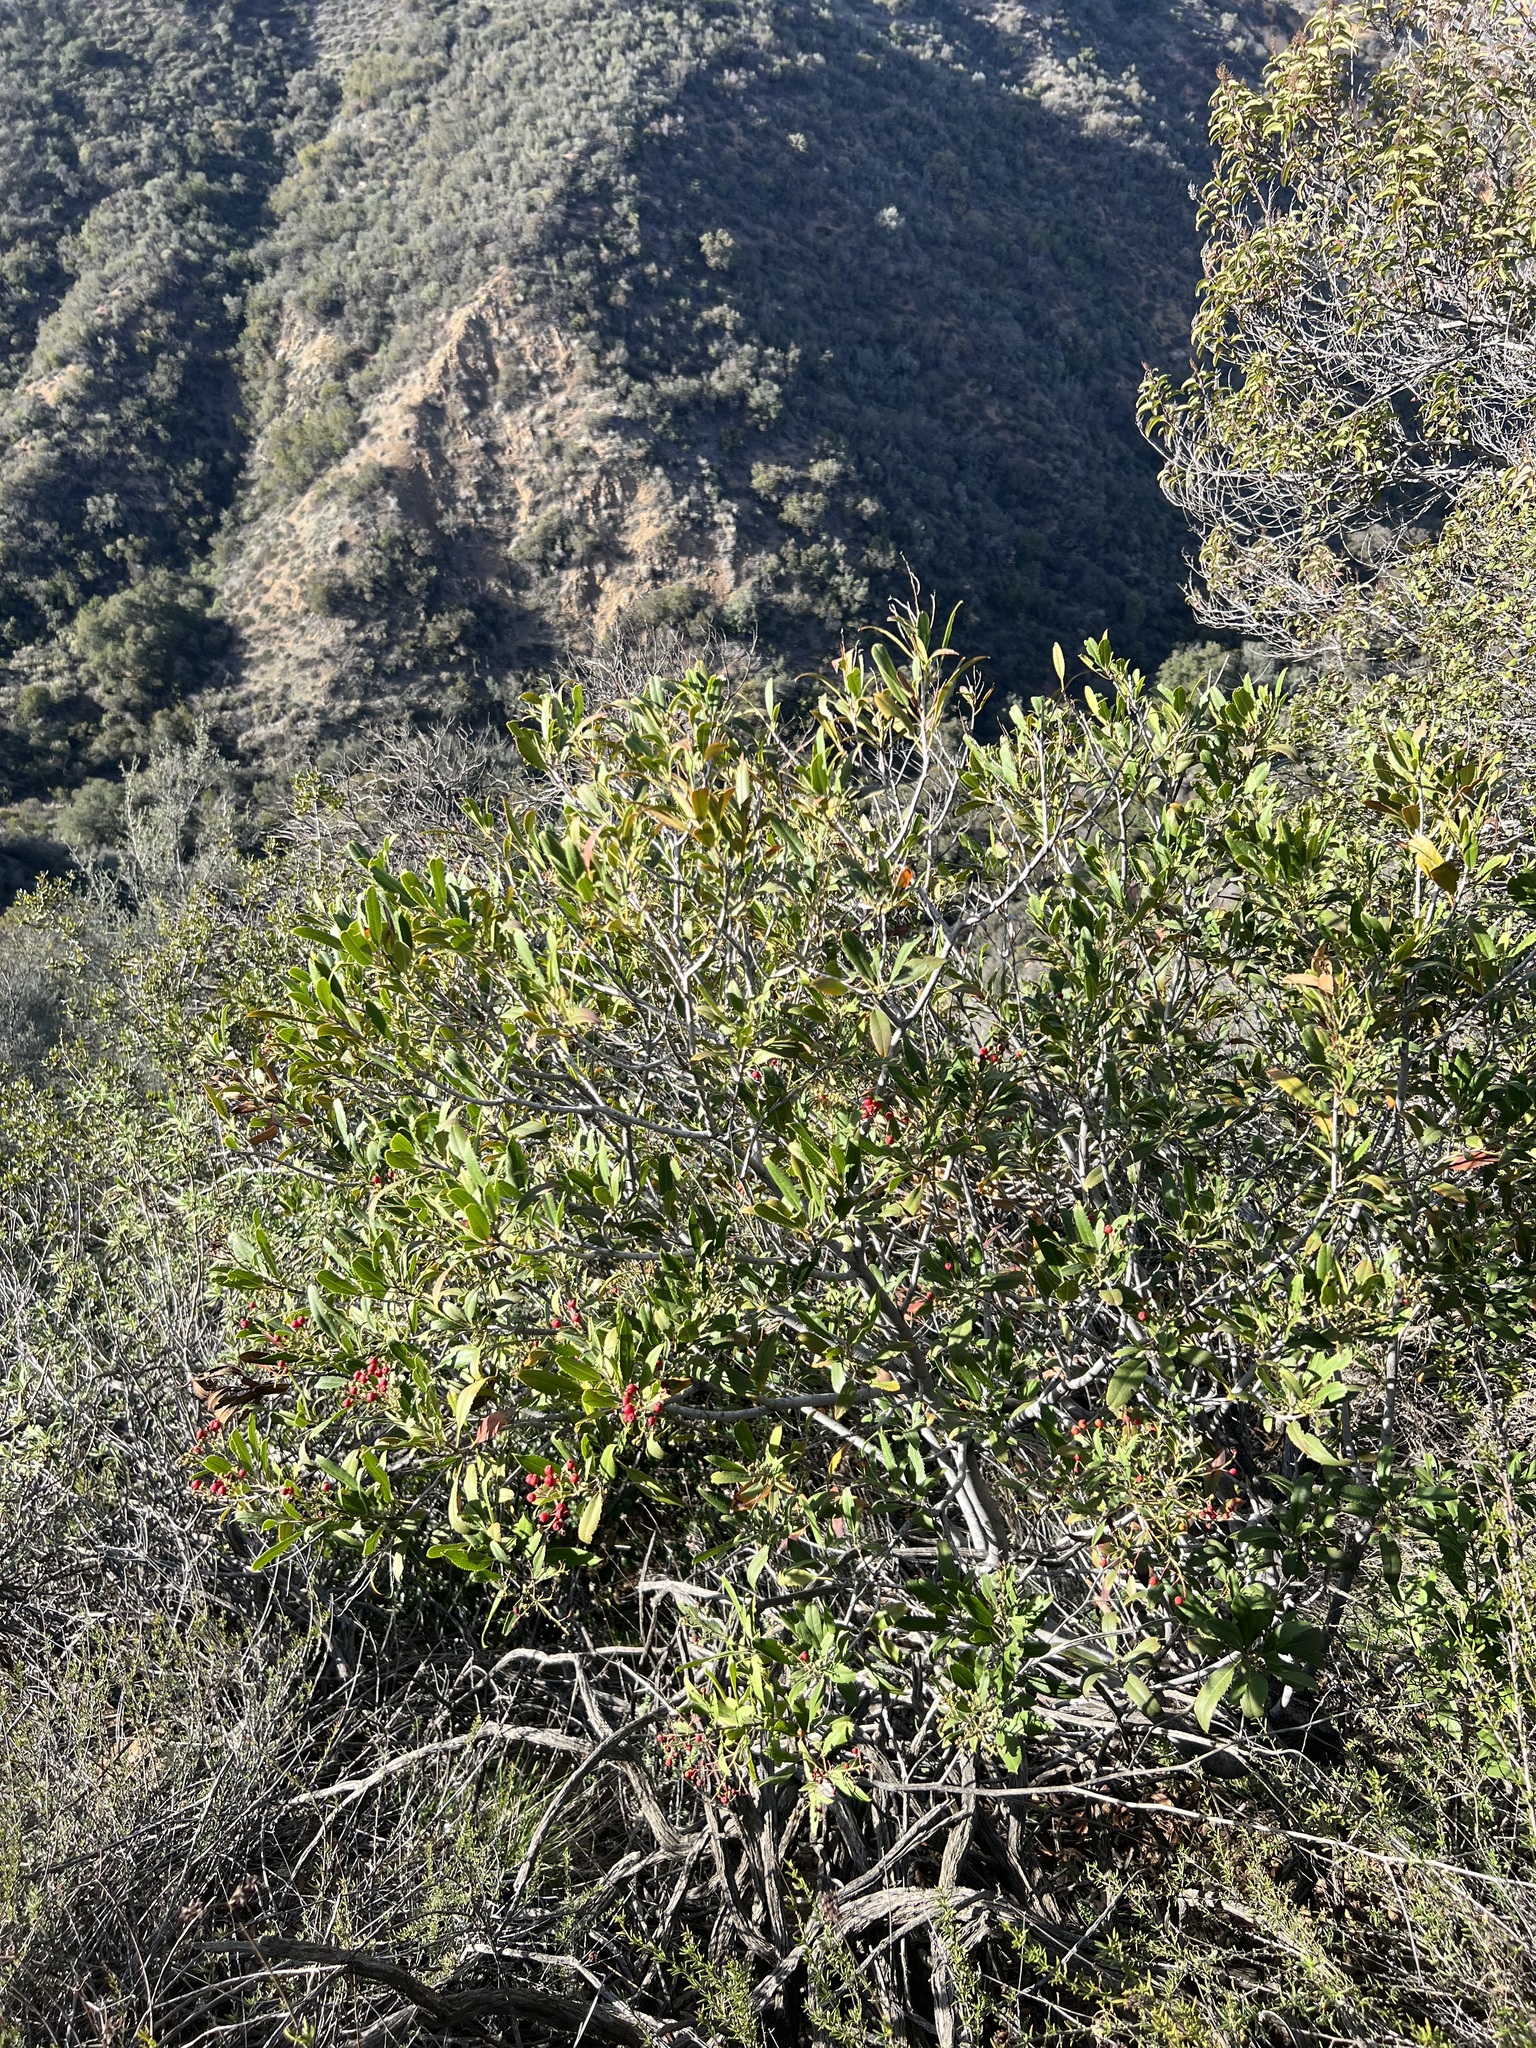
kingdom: Plantae
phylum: Tracheophyta
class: Magnoliopsida
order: Rosales
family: Rosaceae
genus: Heteromeles
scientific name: Heteromeles arbutifolia
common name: California-holly
